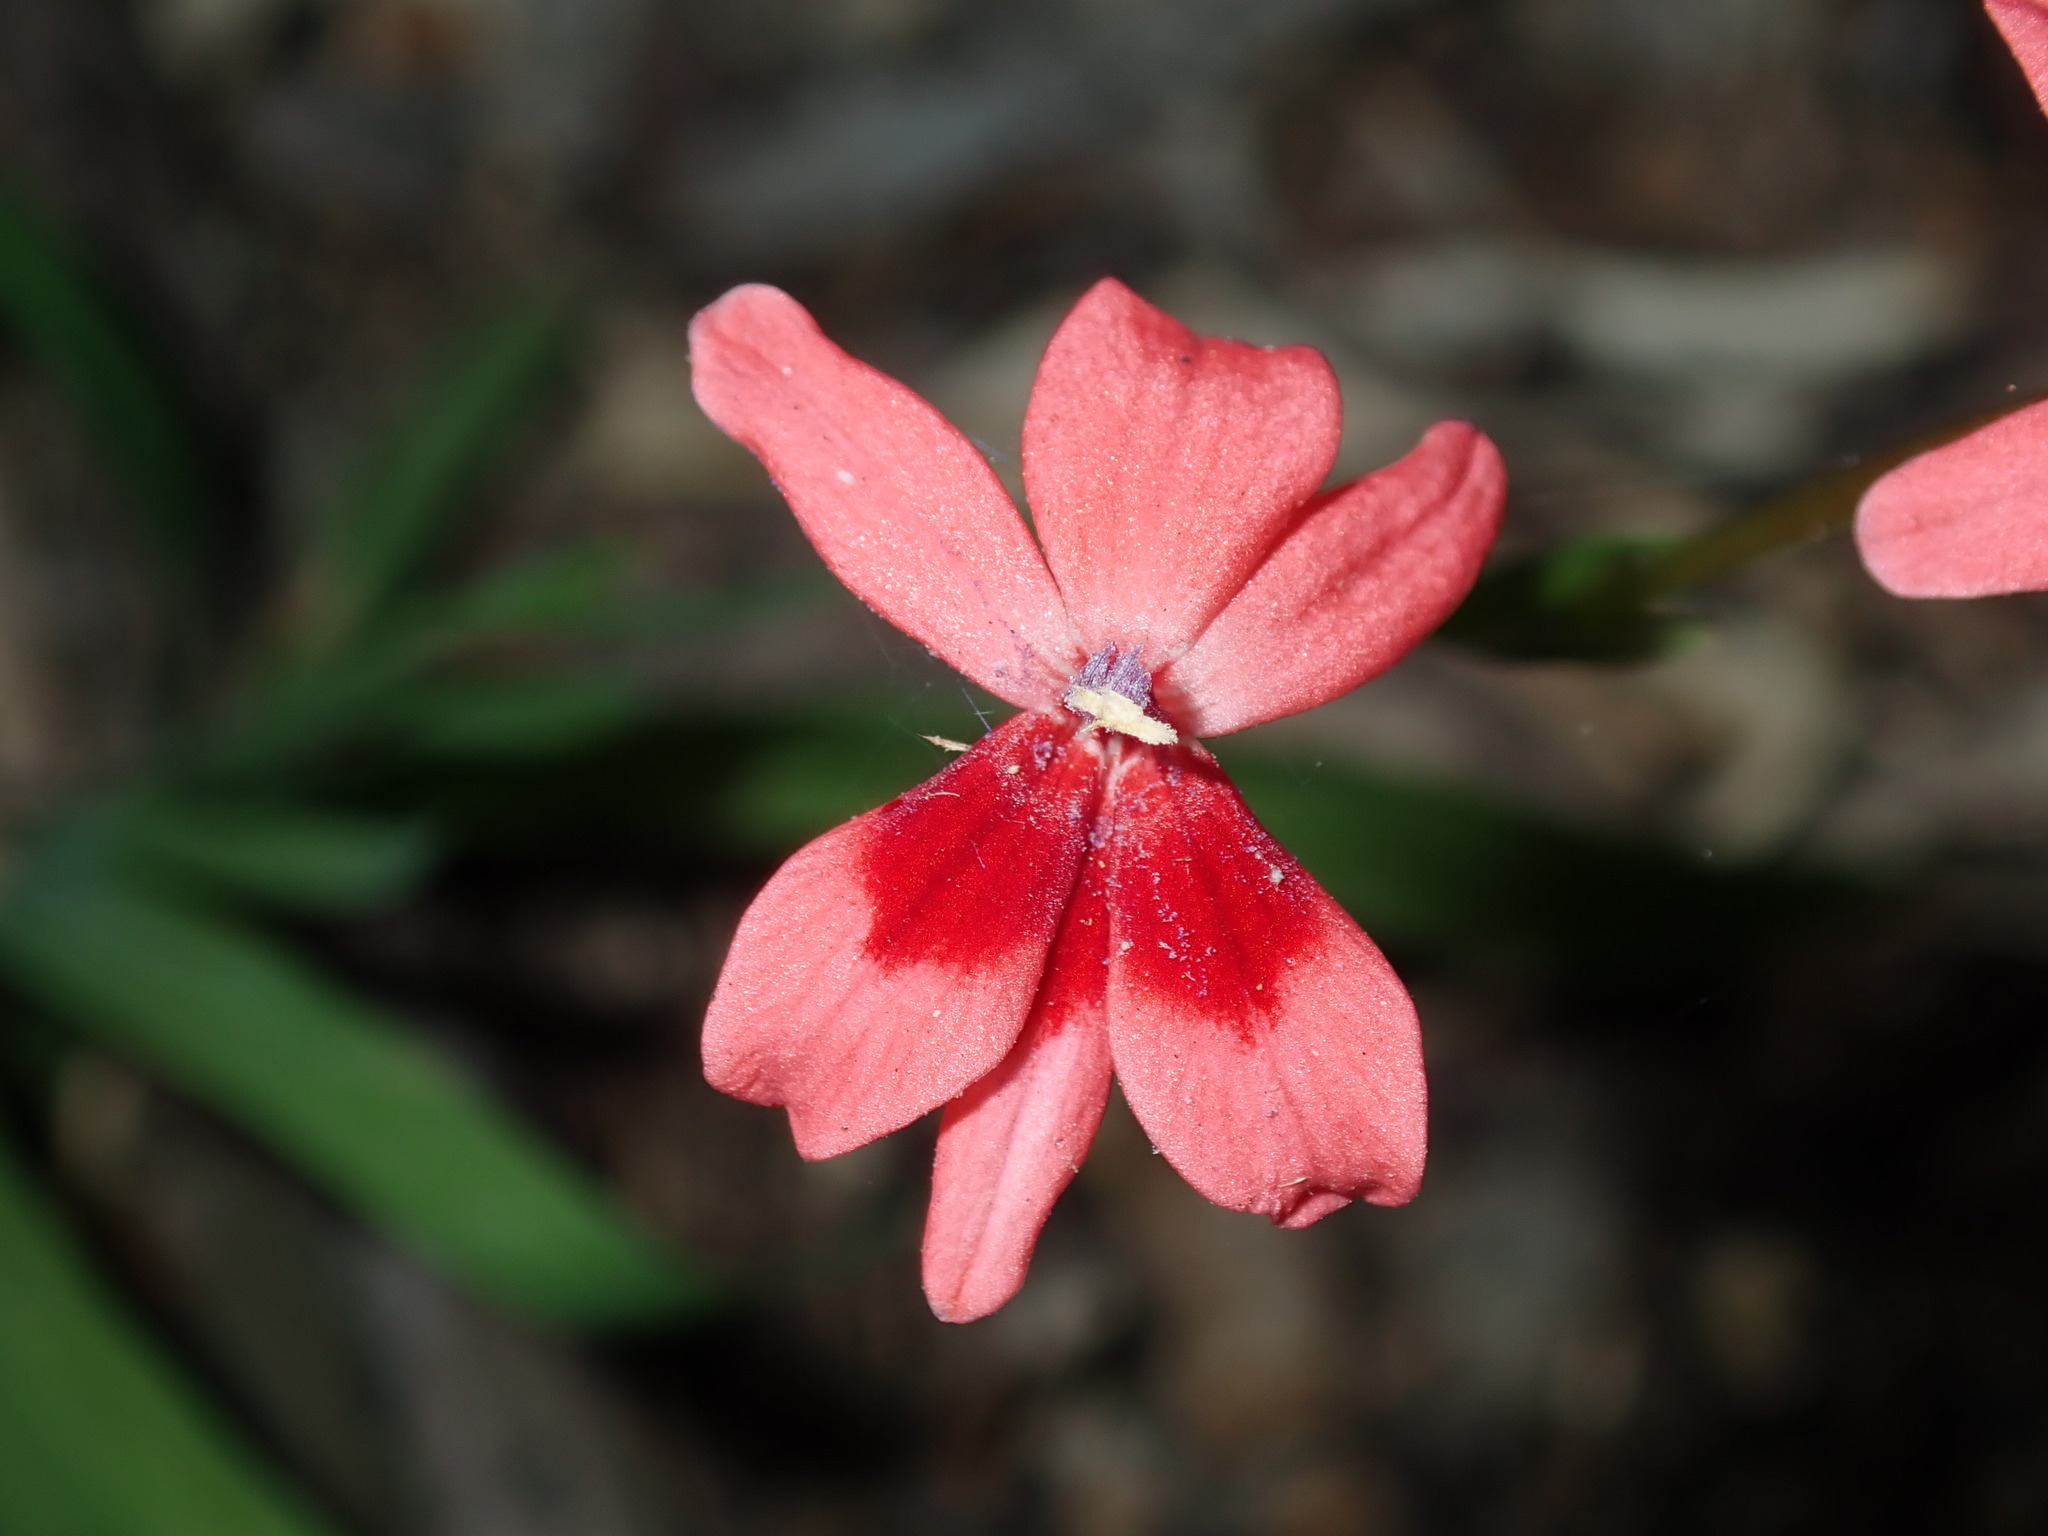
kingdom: Plantae
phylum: Tracheophyta
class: Liliopsida
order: Asparagales
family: Iridaceae
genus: Freesia
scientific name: Freesia laxa
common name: False freesia
